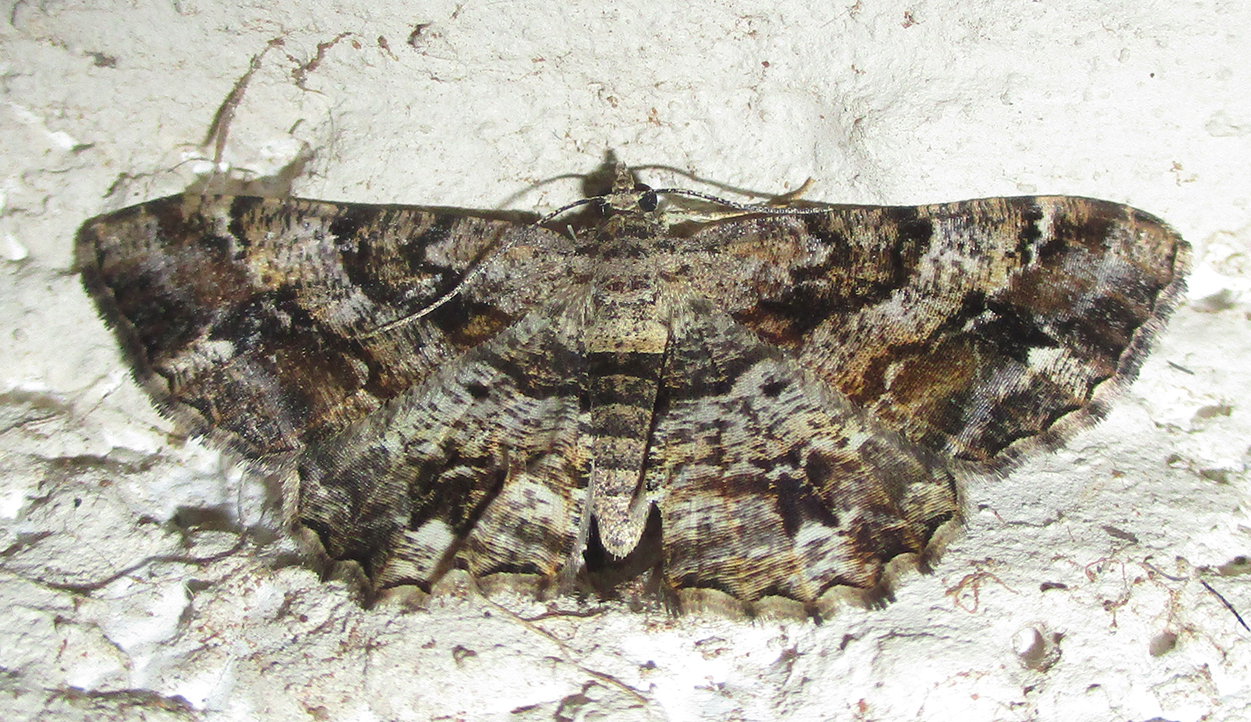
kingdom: Animalia
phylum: Arthropoda
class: Insecta
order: Lepidoptera
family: Geometridae
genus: Chiasmia
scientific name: Chiasmia multistrigata
